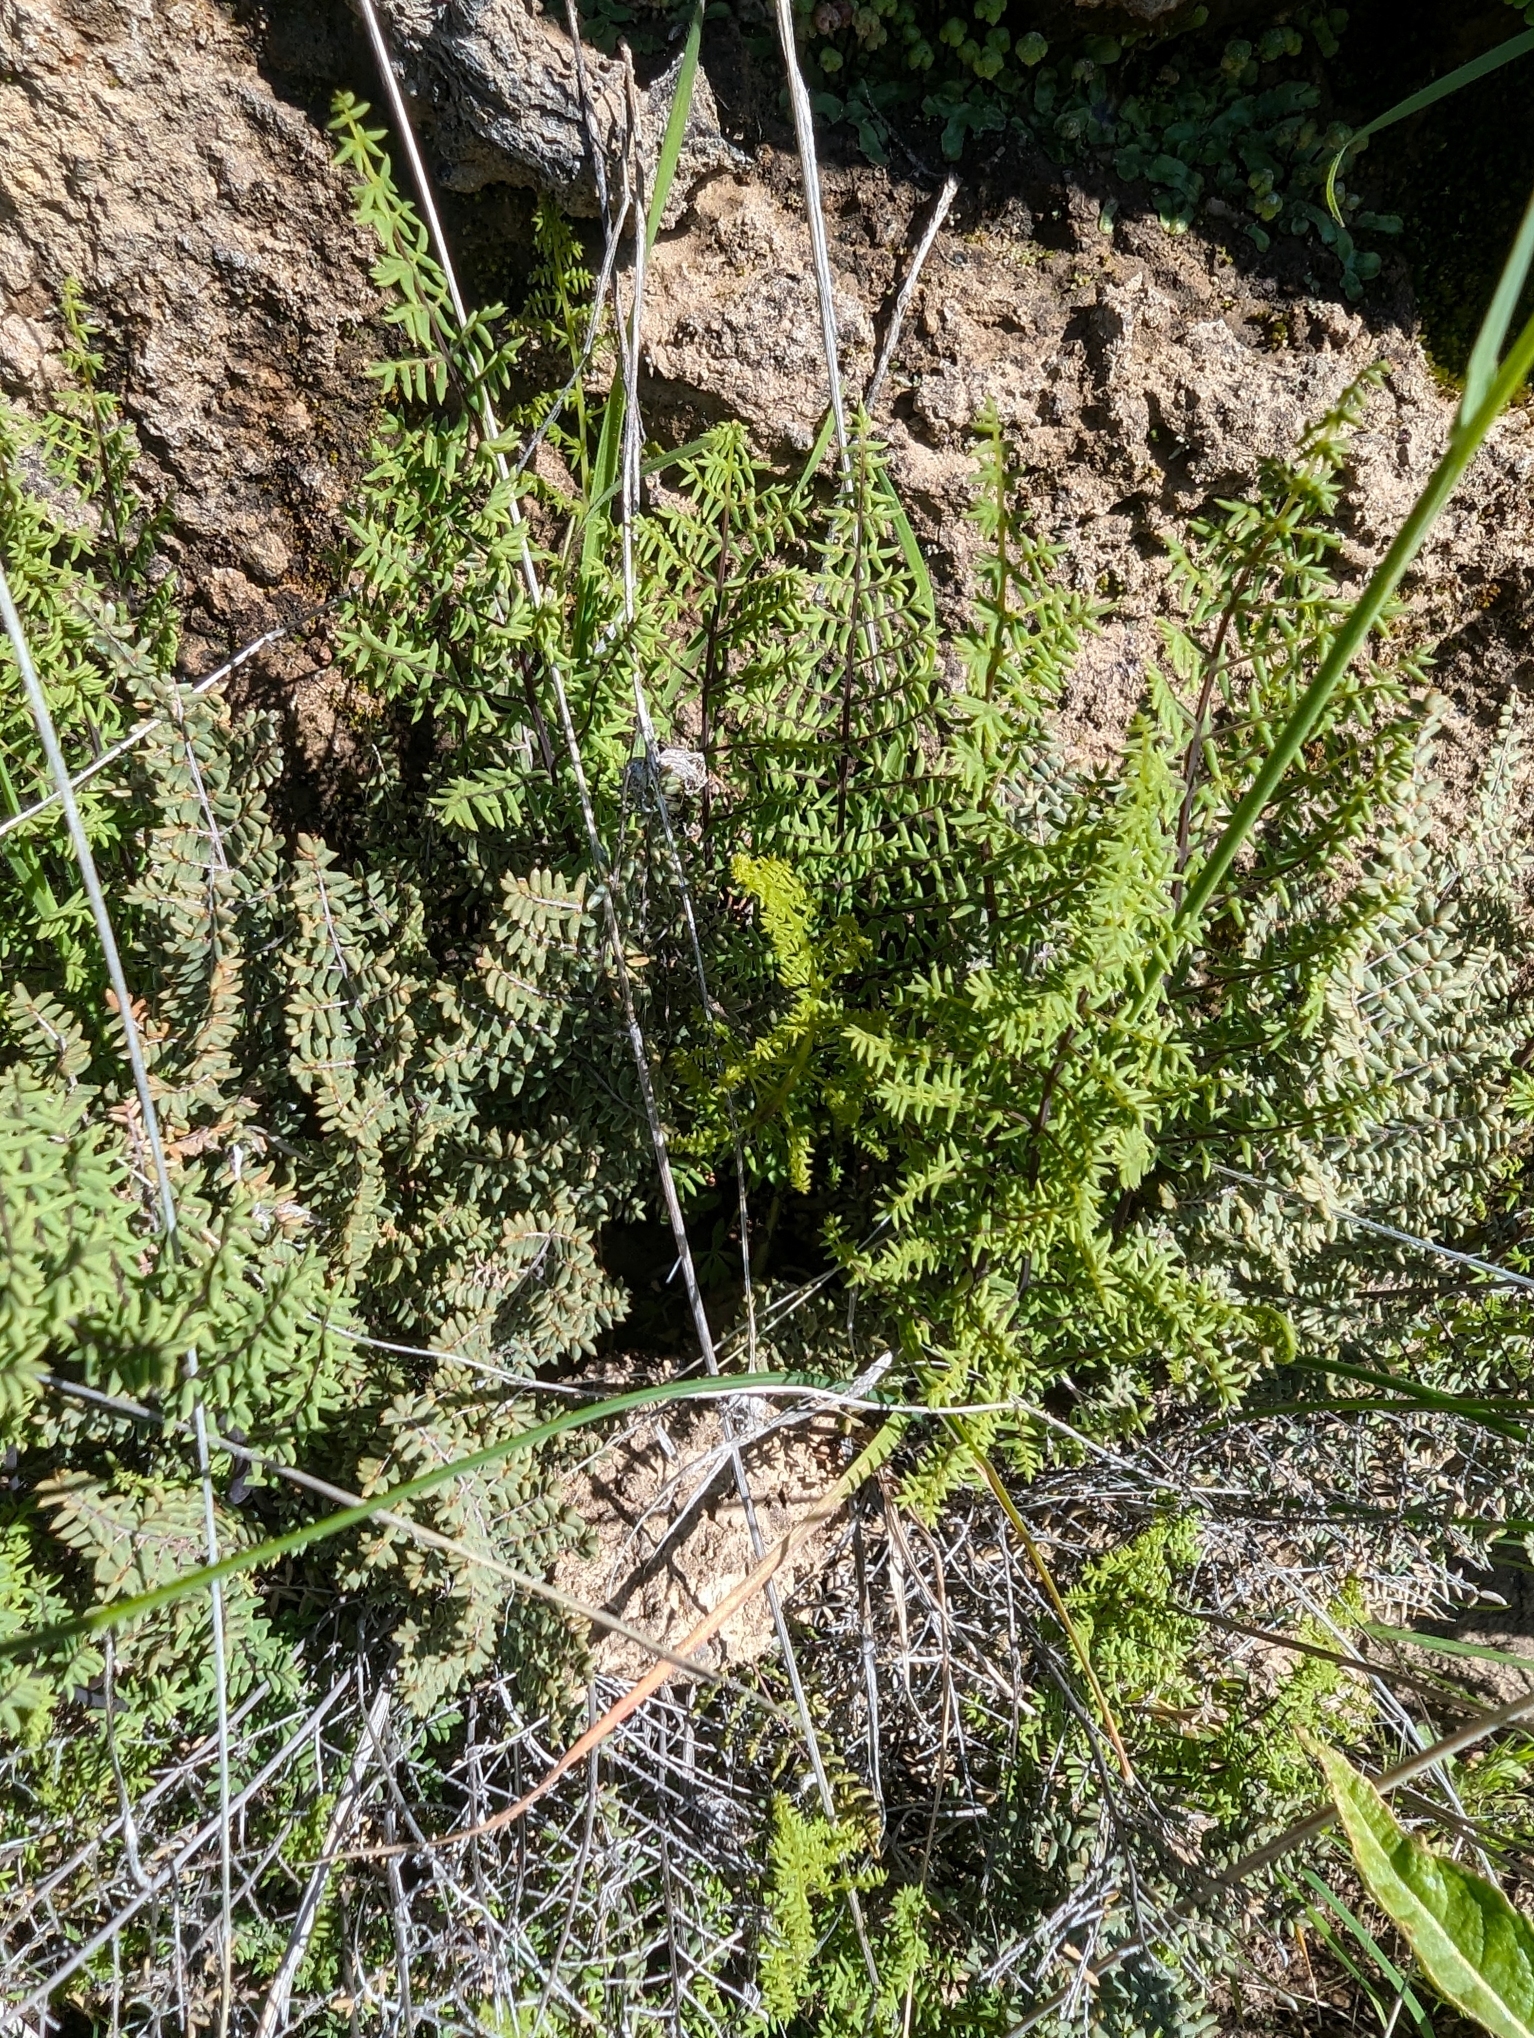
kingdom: Plantae
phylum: Tracheophyta
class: Polypodiopsida
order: Polypodiales
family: Pteridaceae
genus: Pellaea
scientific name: Pellaea mucronata
